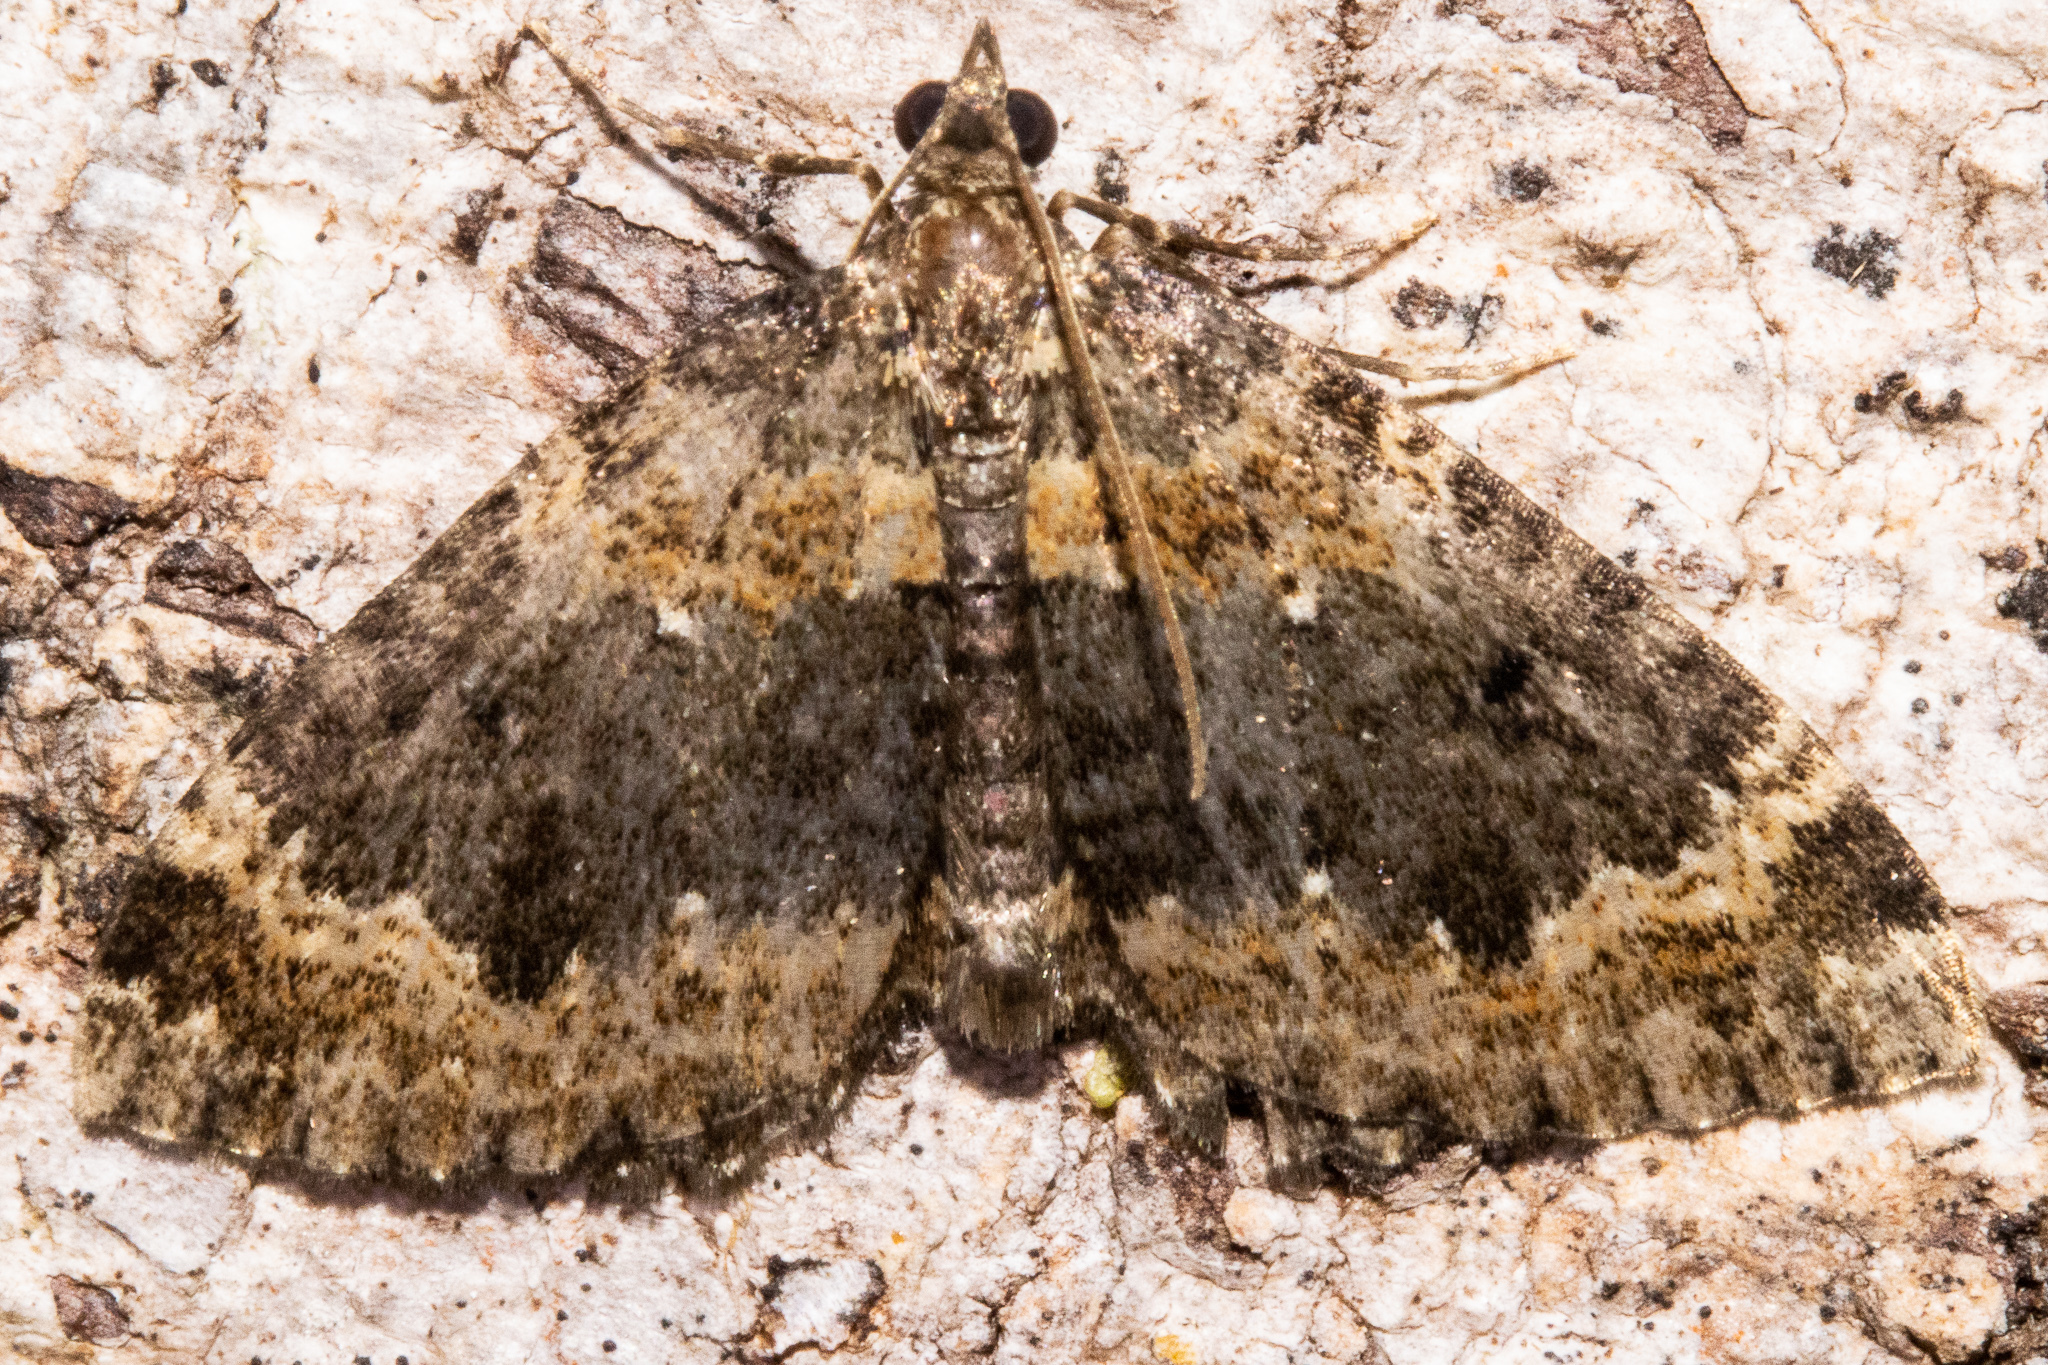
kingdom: Animalia
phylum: Arthropoda
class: Insecta
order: Lepidoptera
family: Geometridae
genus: Hydriomena
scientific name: Hydriomena hemizona
